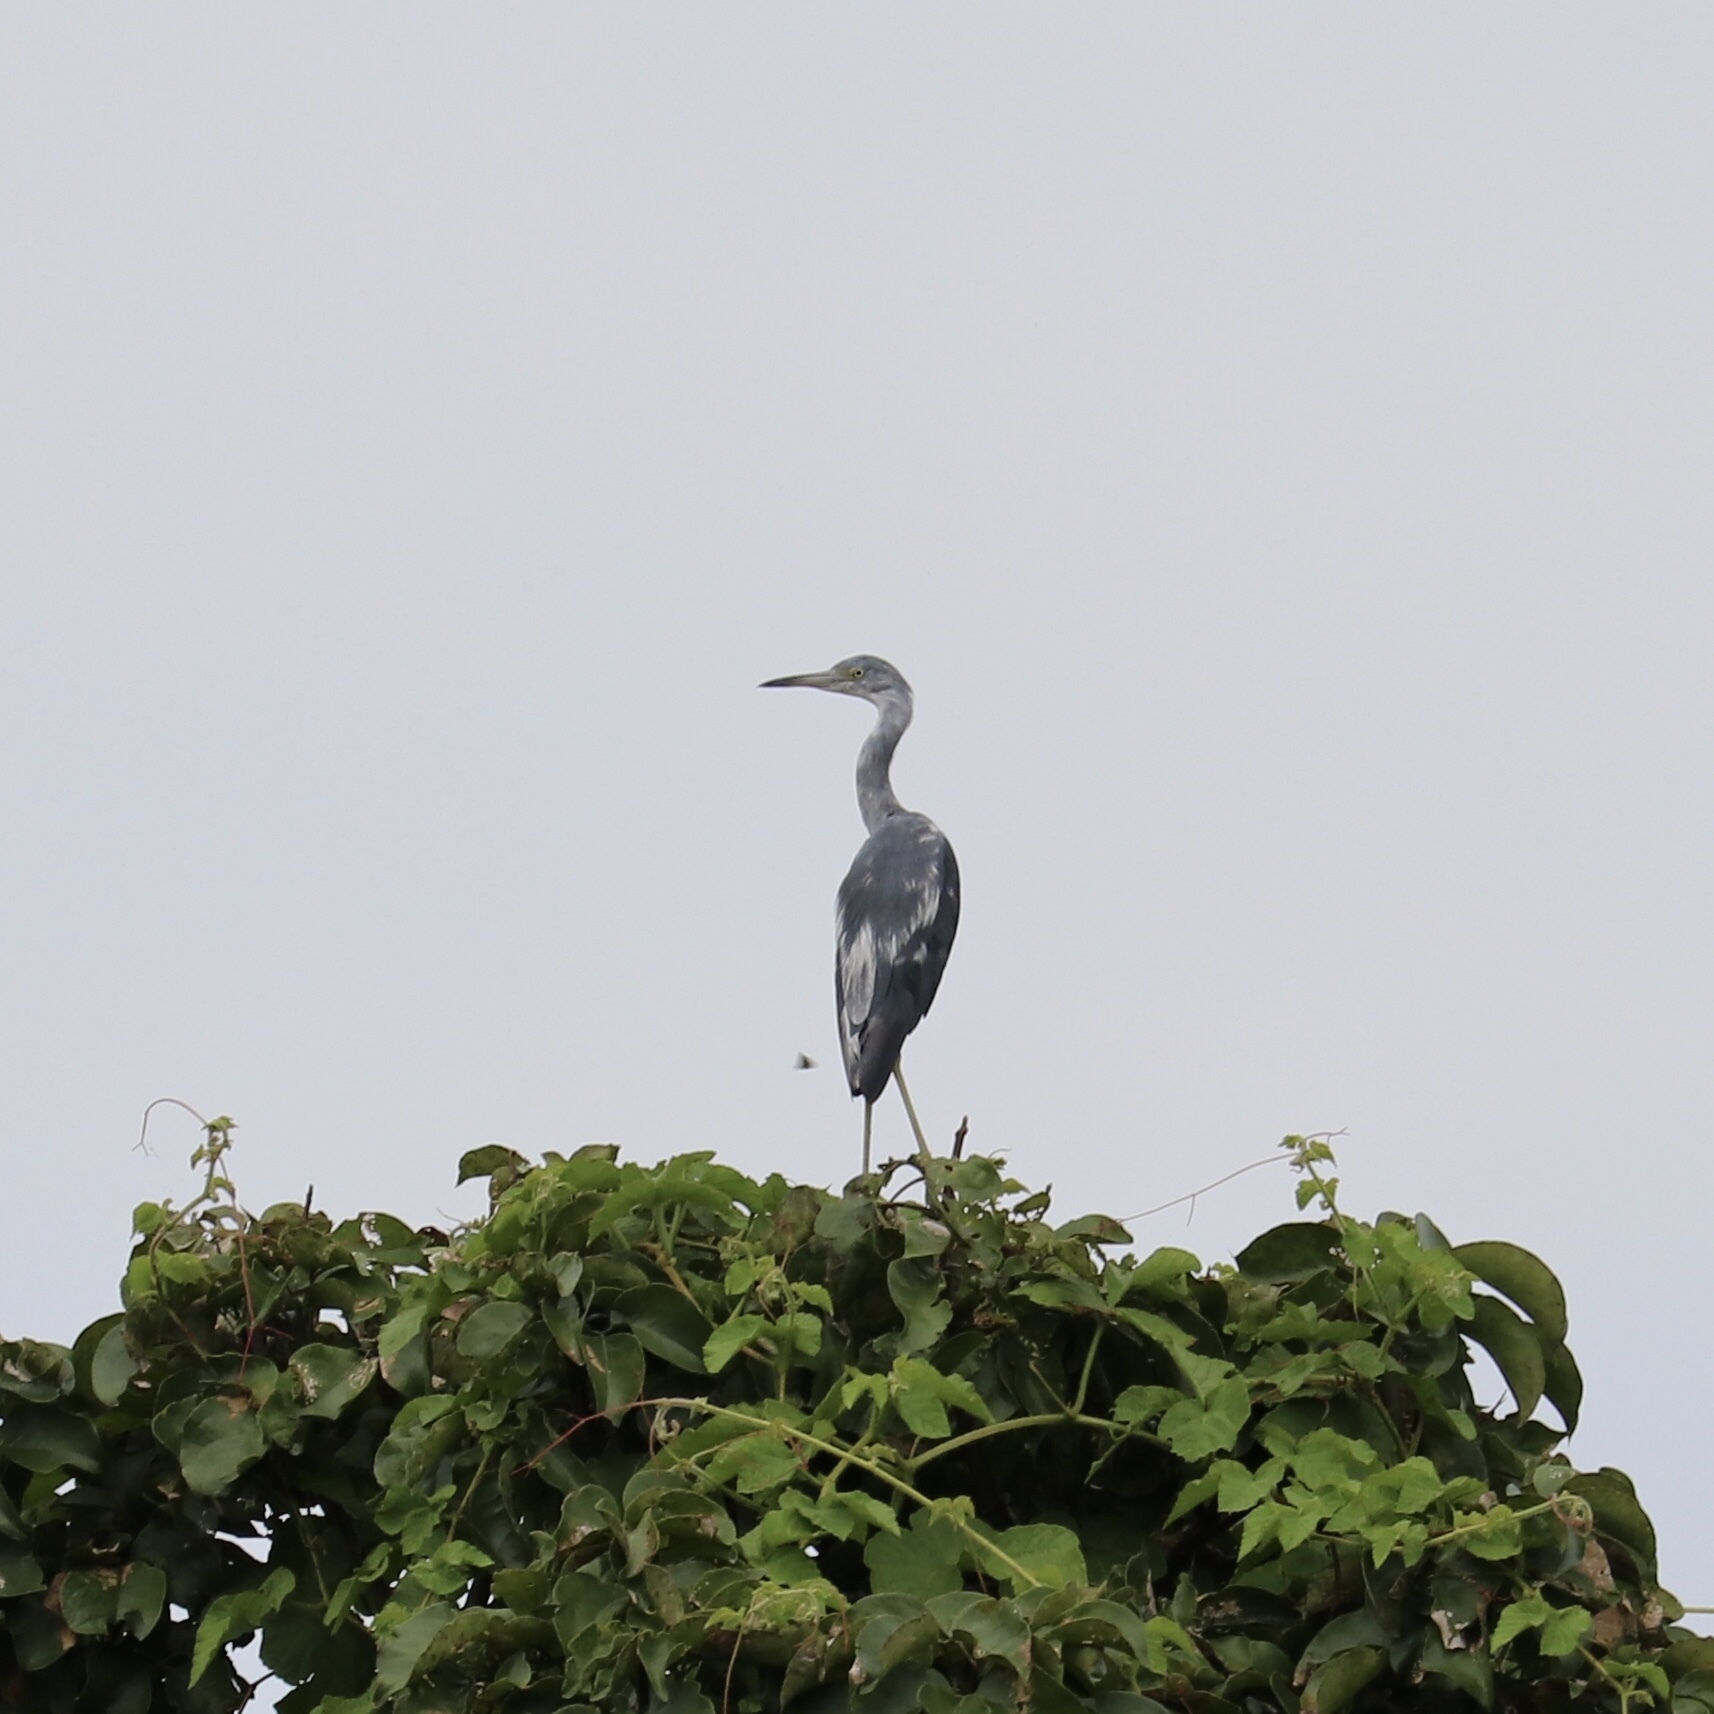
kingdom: Animalia
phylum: Chordata
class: Aves
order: Pelecaniformes
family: Ardeidae
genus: Egretta
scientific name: Egretta caerulea
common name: Little blue heron
